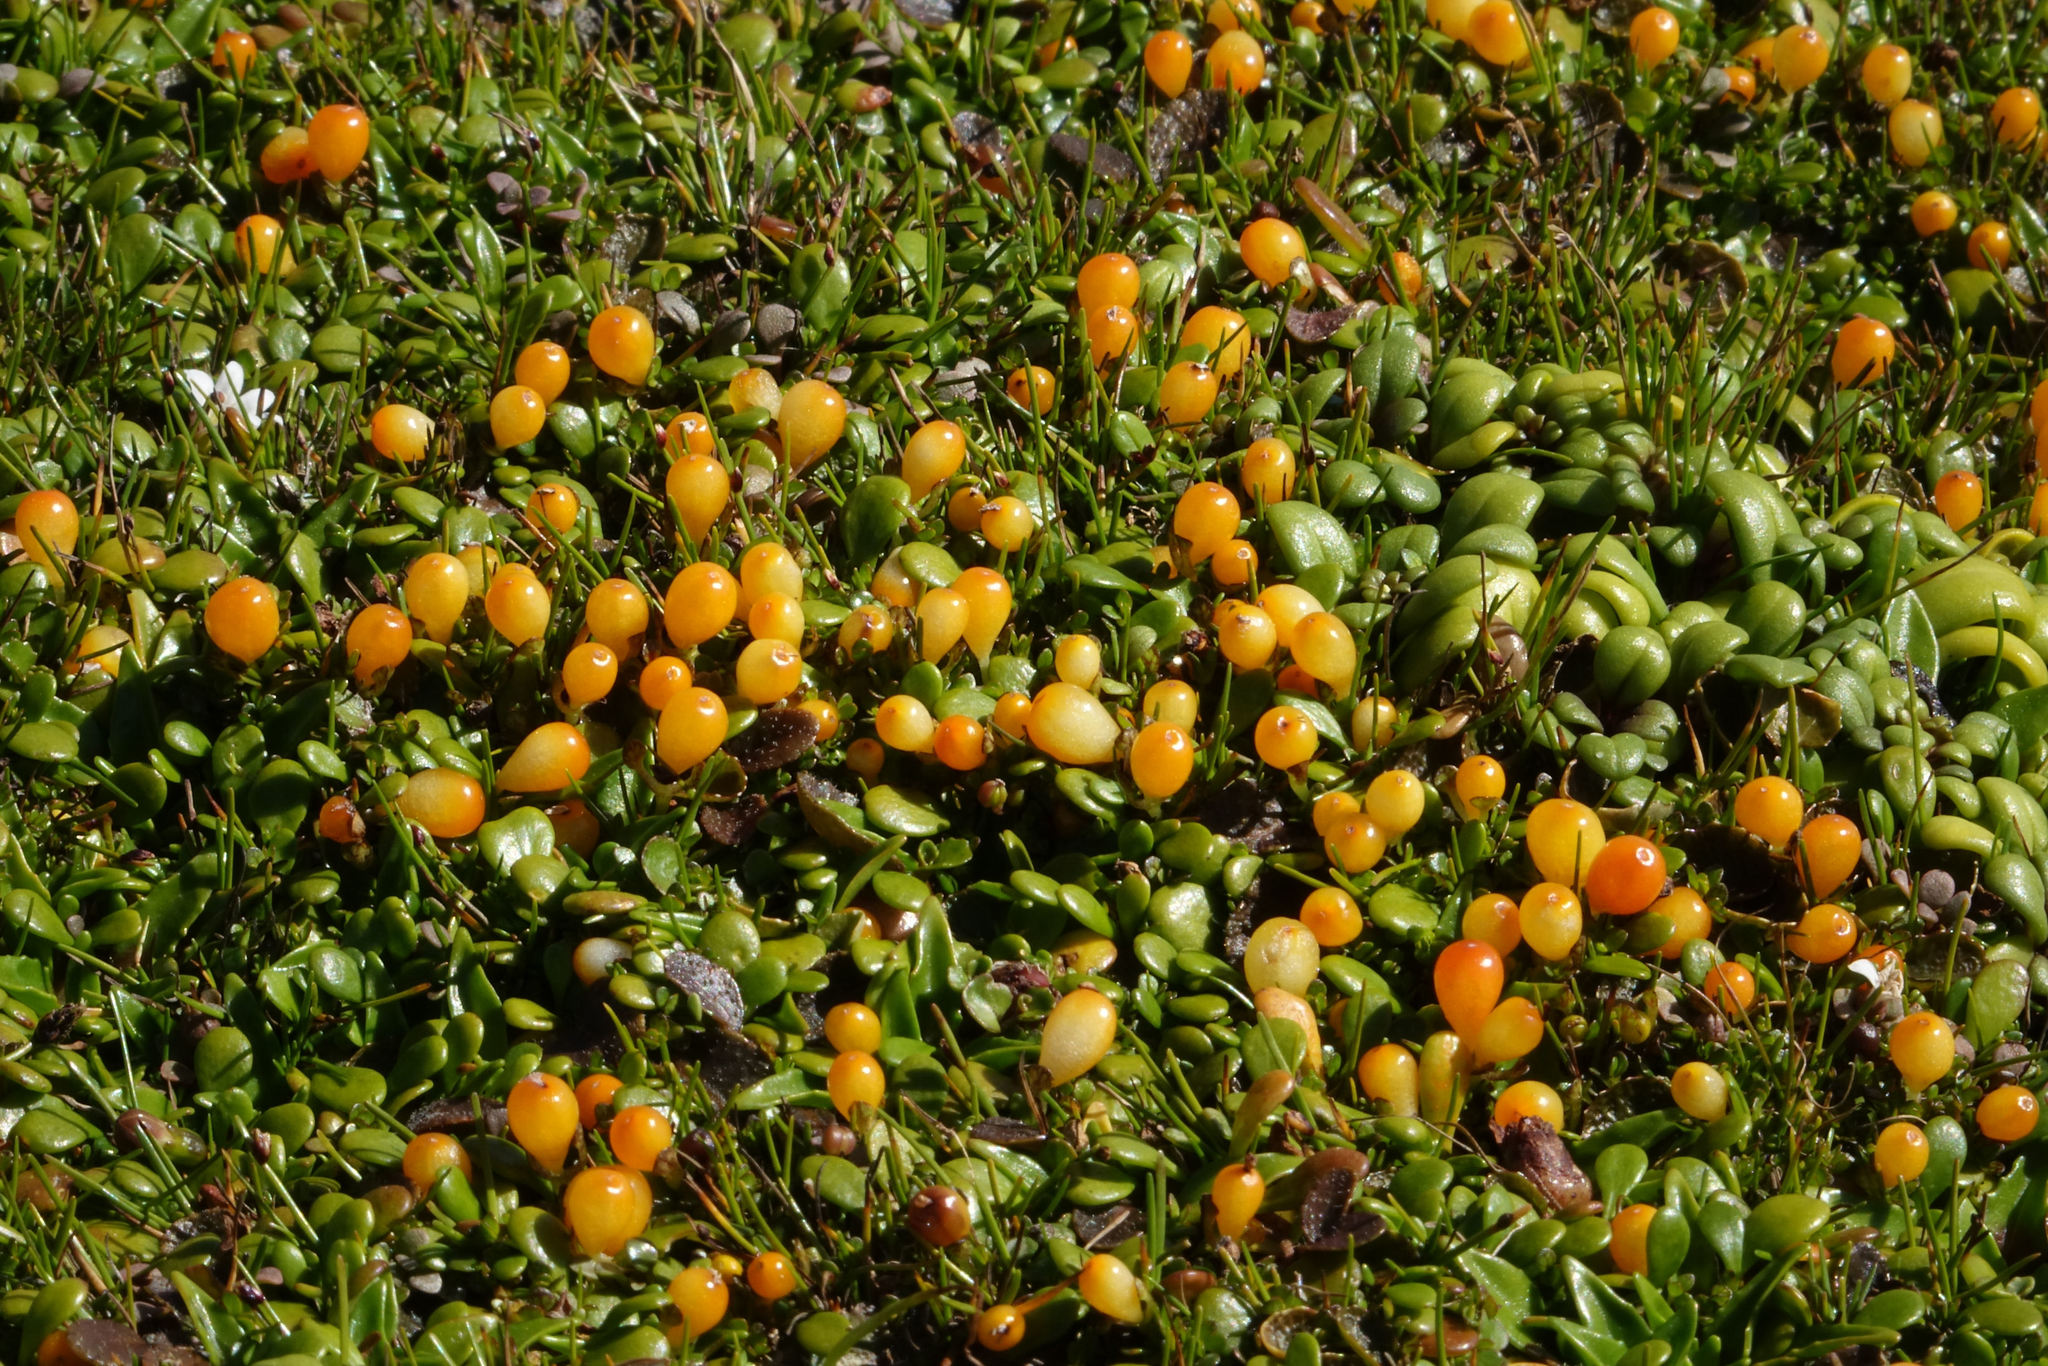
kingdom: Plantae
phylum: Tracheophyta
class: Magnoliopsida
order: Gentianales
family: Rubiaceae
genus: Nertera
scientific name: Nertera balfouriana
